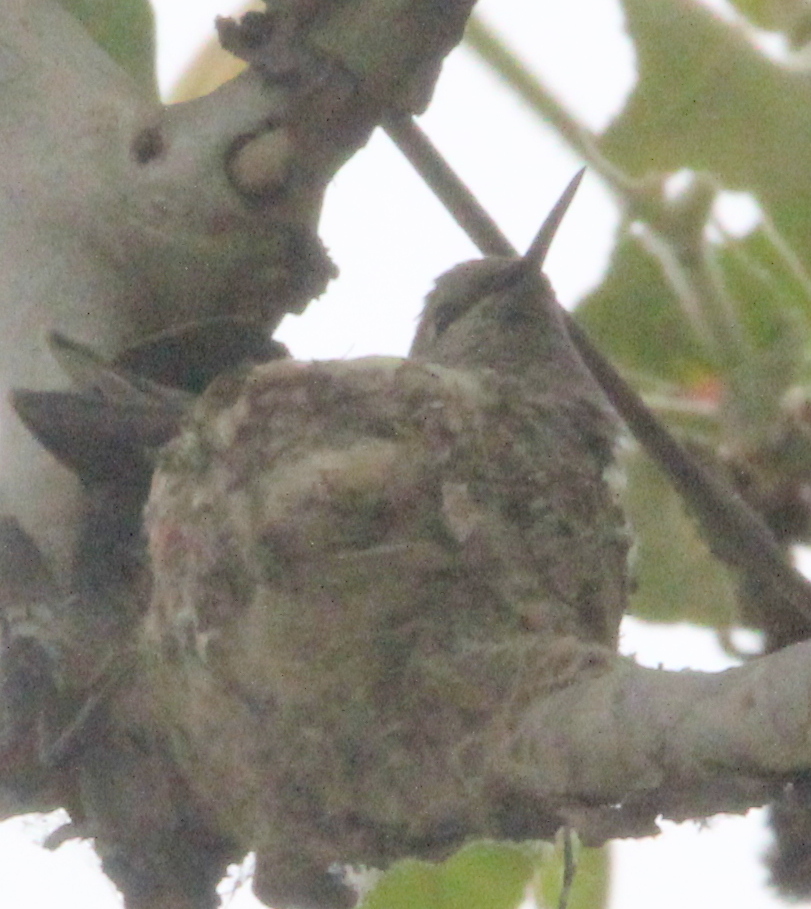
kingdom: Animalia
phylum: Chordata
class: Aves
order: Apodiformes
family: Trochilidae
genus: Calypte
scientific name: Calypte anna
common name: Anna's hummingbird
